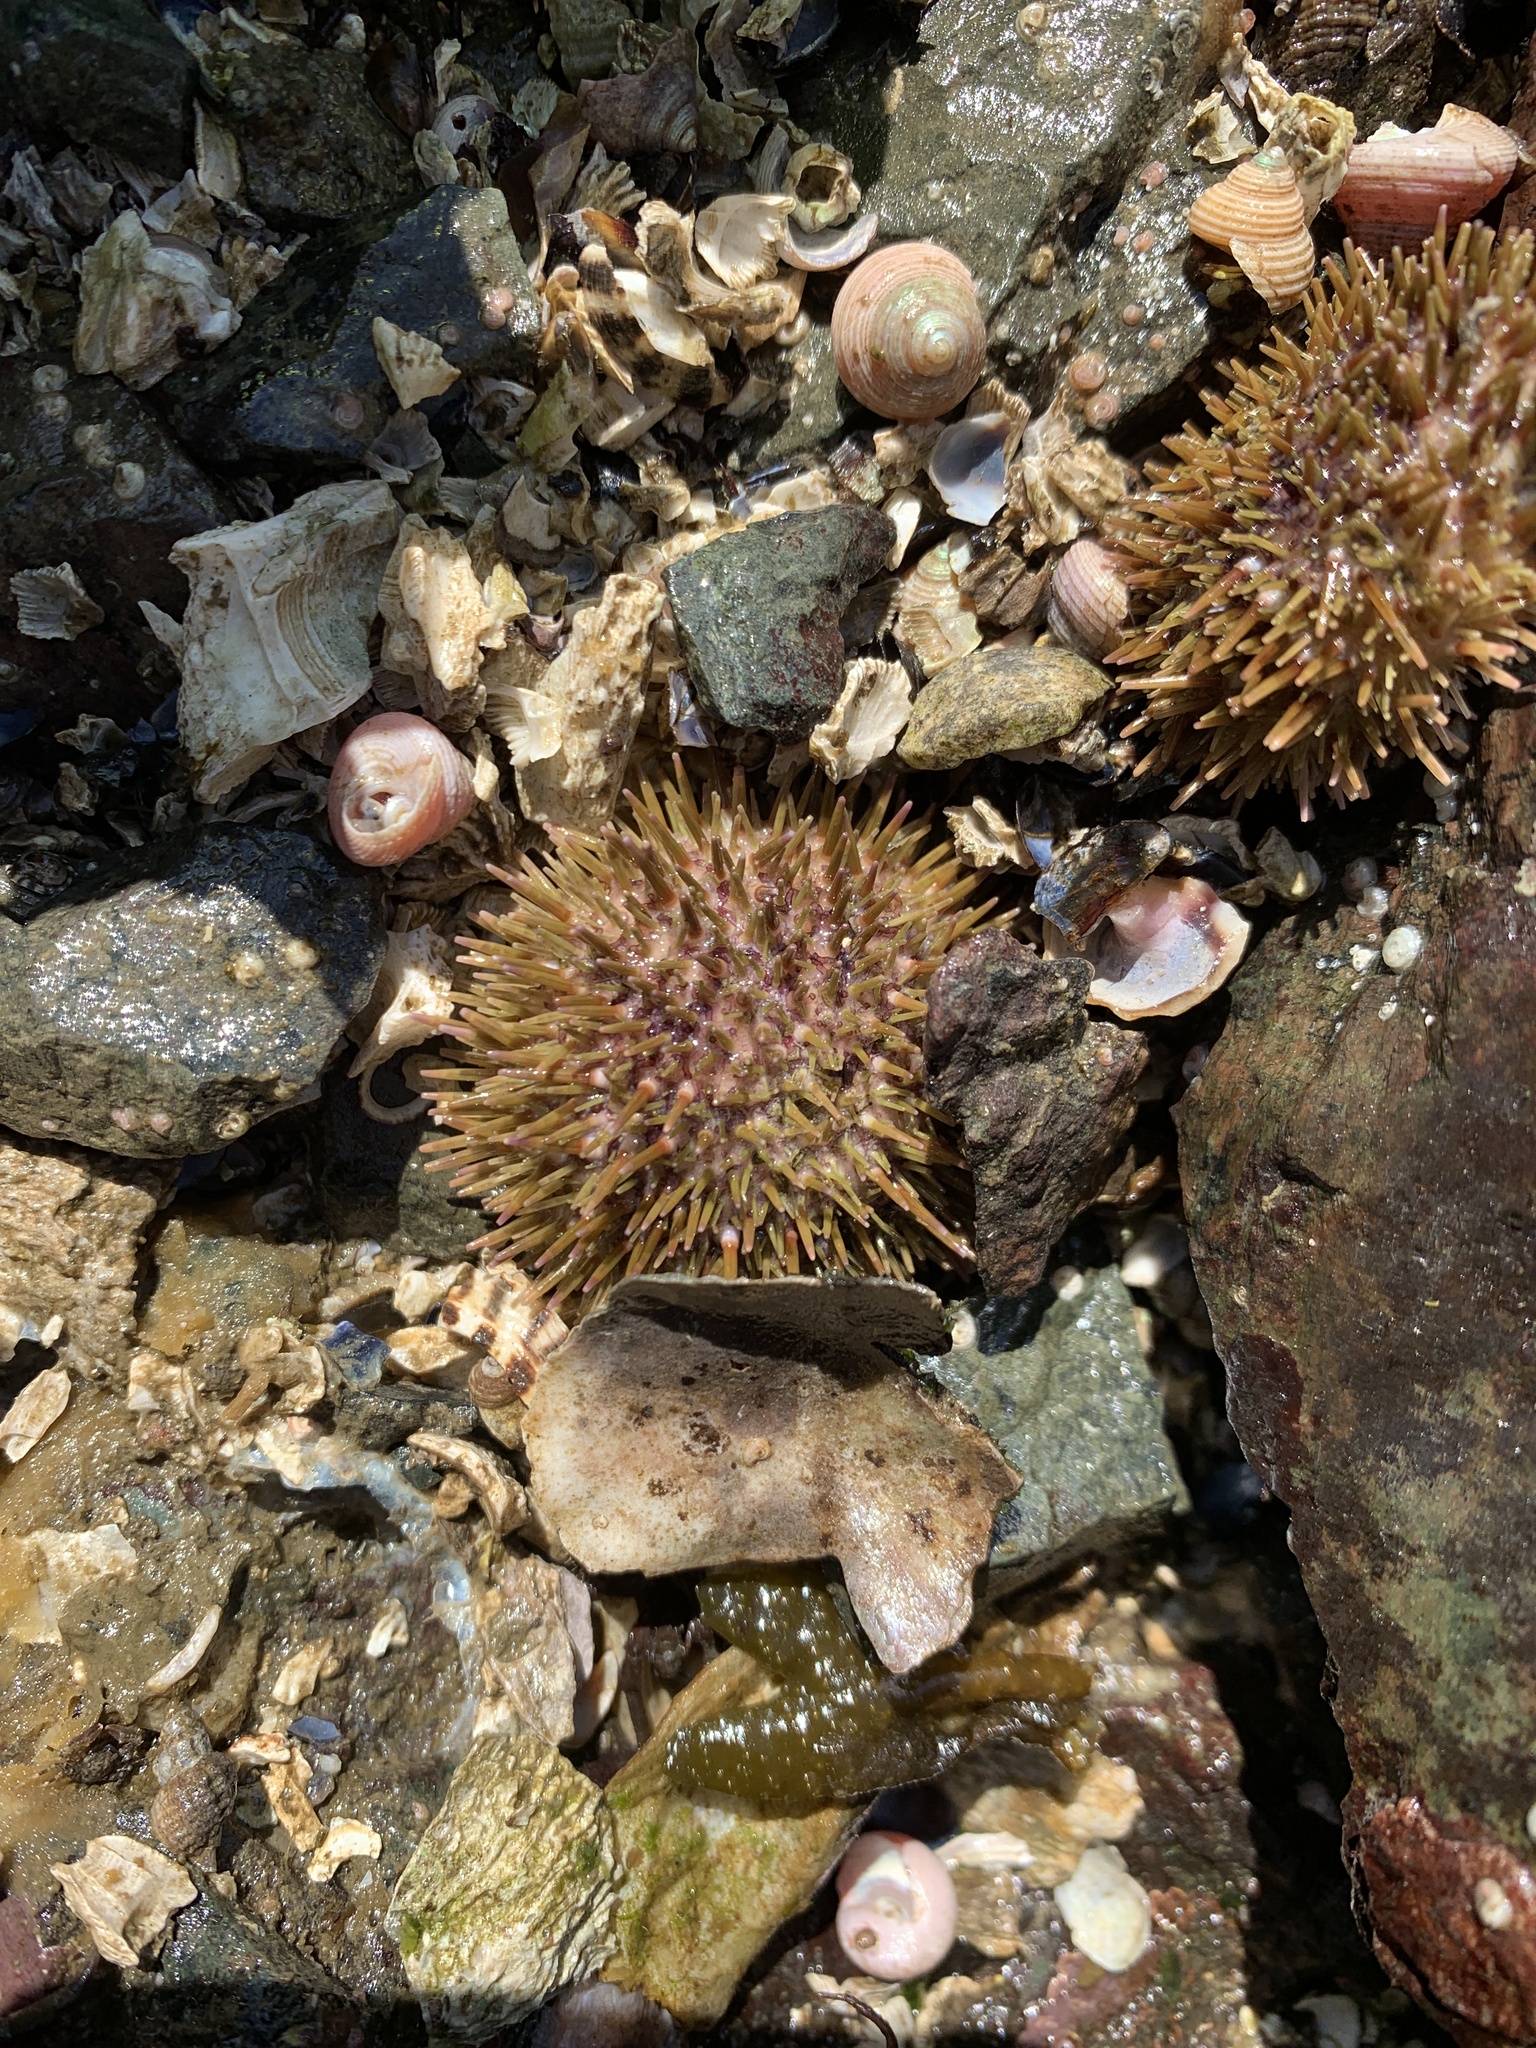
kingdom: Animalia
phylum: Echinodermata
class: Echinoidea
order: Camarodonta
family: Strongylocentrotidae
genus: Strongylocentrotus
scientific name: Strongylocentrotus droebachiensis
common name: Northern sea urchin
